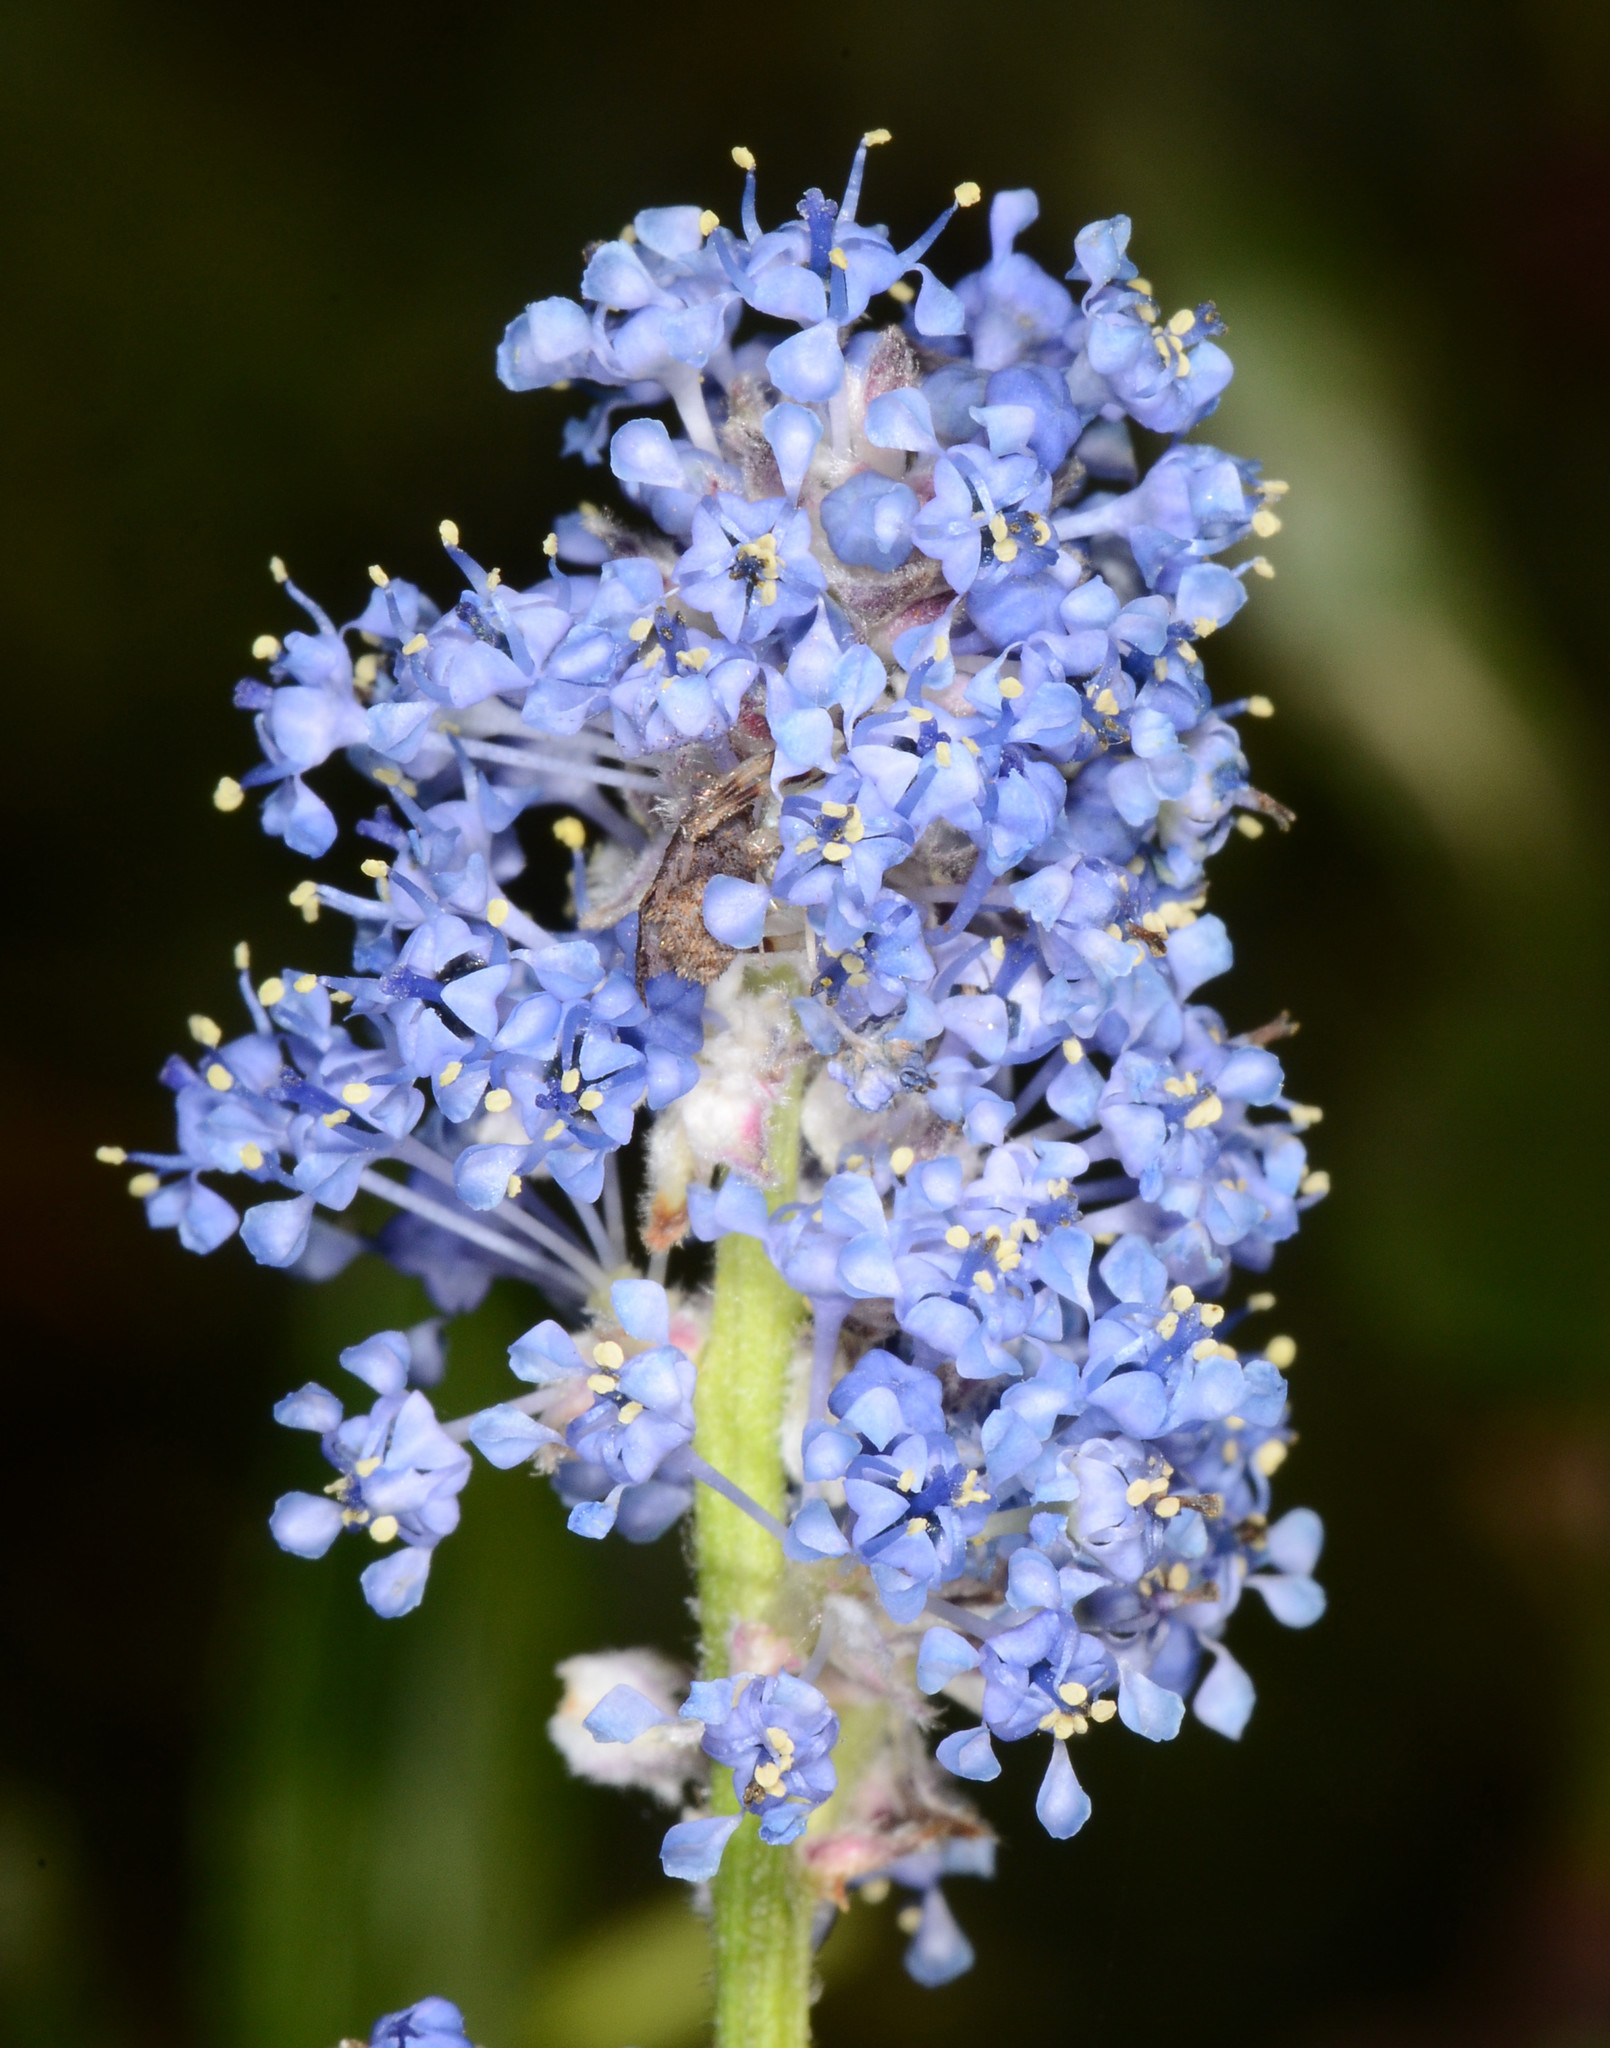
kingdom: Plantae
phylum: Tracheophyta
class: Magnoliopsida
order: Rosales
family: Rhamnaceae
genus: Ceanothus
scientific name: Ceanothus griseus
